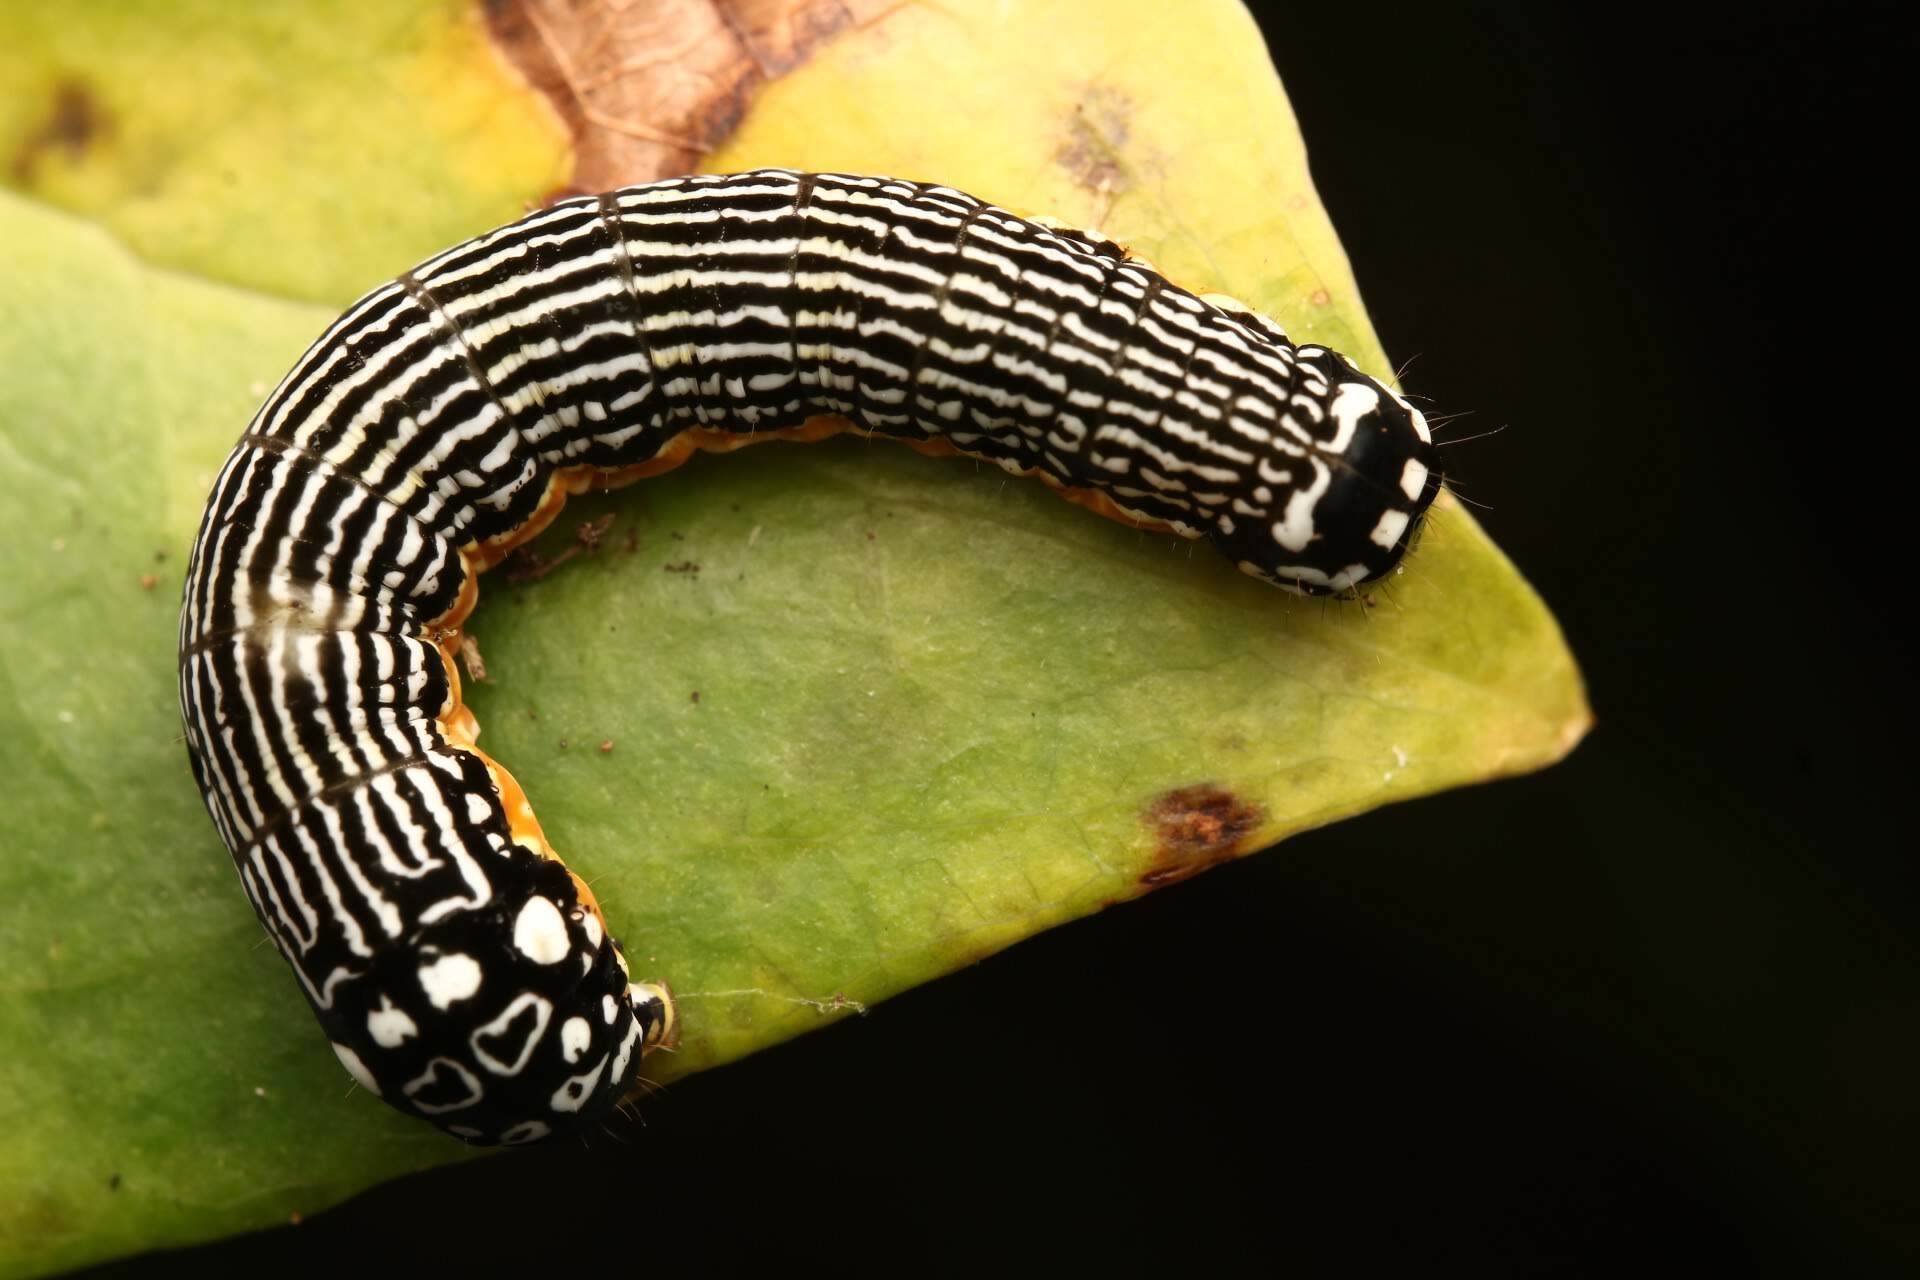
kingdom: Animalia
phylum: Arthropoda
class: Insecta
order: Lepidoptera
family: Noctuidae
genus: Phosphila
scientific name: Phosphila turbulenta
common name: Turbulent phosphila moth
